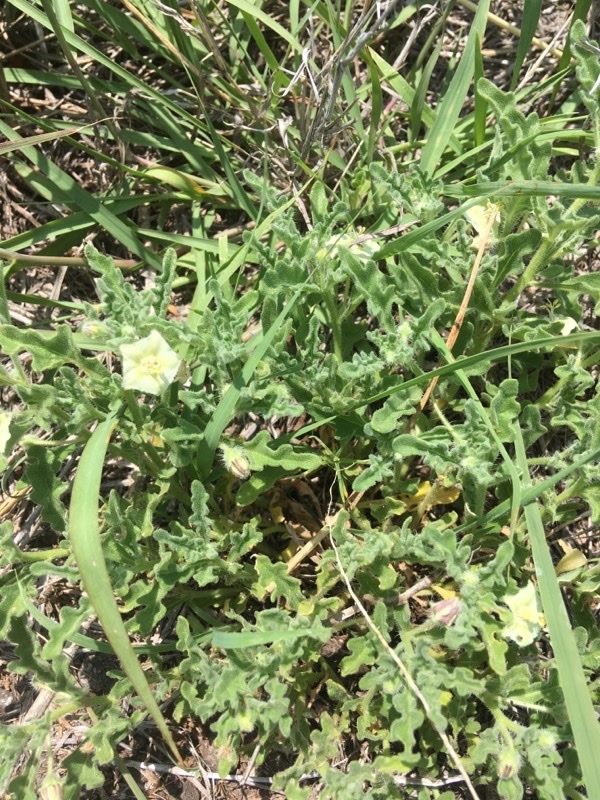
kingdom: Plantae
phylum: Tracheophyta
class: Magnoliopsida
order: Solanales
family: Solanaceae
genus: Chamaesaracha
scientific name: Chamaesaracha coniodes
